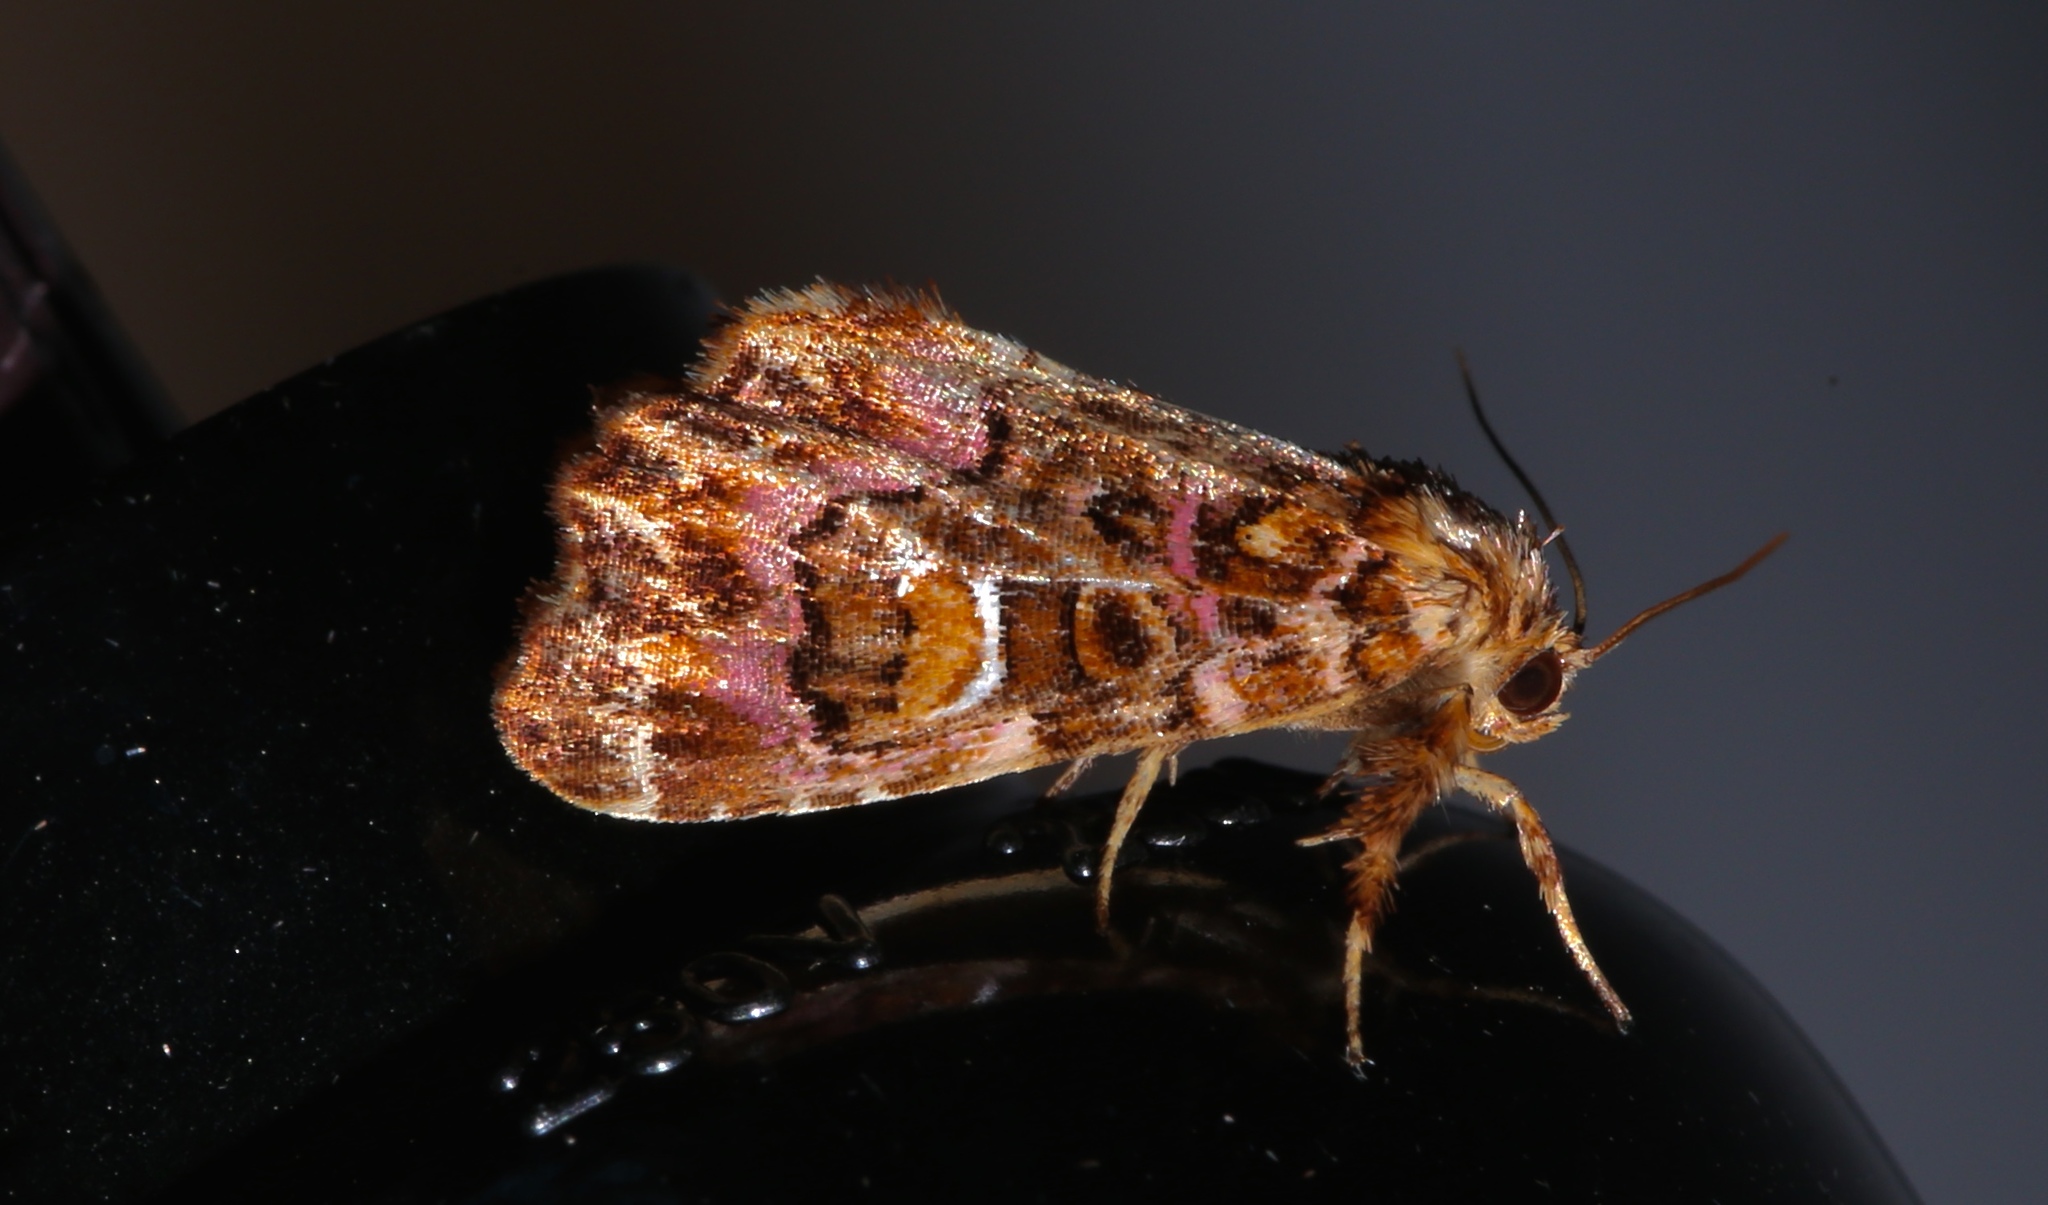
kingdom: Animalia
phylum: Arthropoda
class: Insecta
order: Lepidoptera
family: Noctuidae
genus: Callopistria
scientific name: Callopistria mollissima
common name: Pink-shaded fern moth
